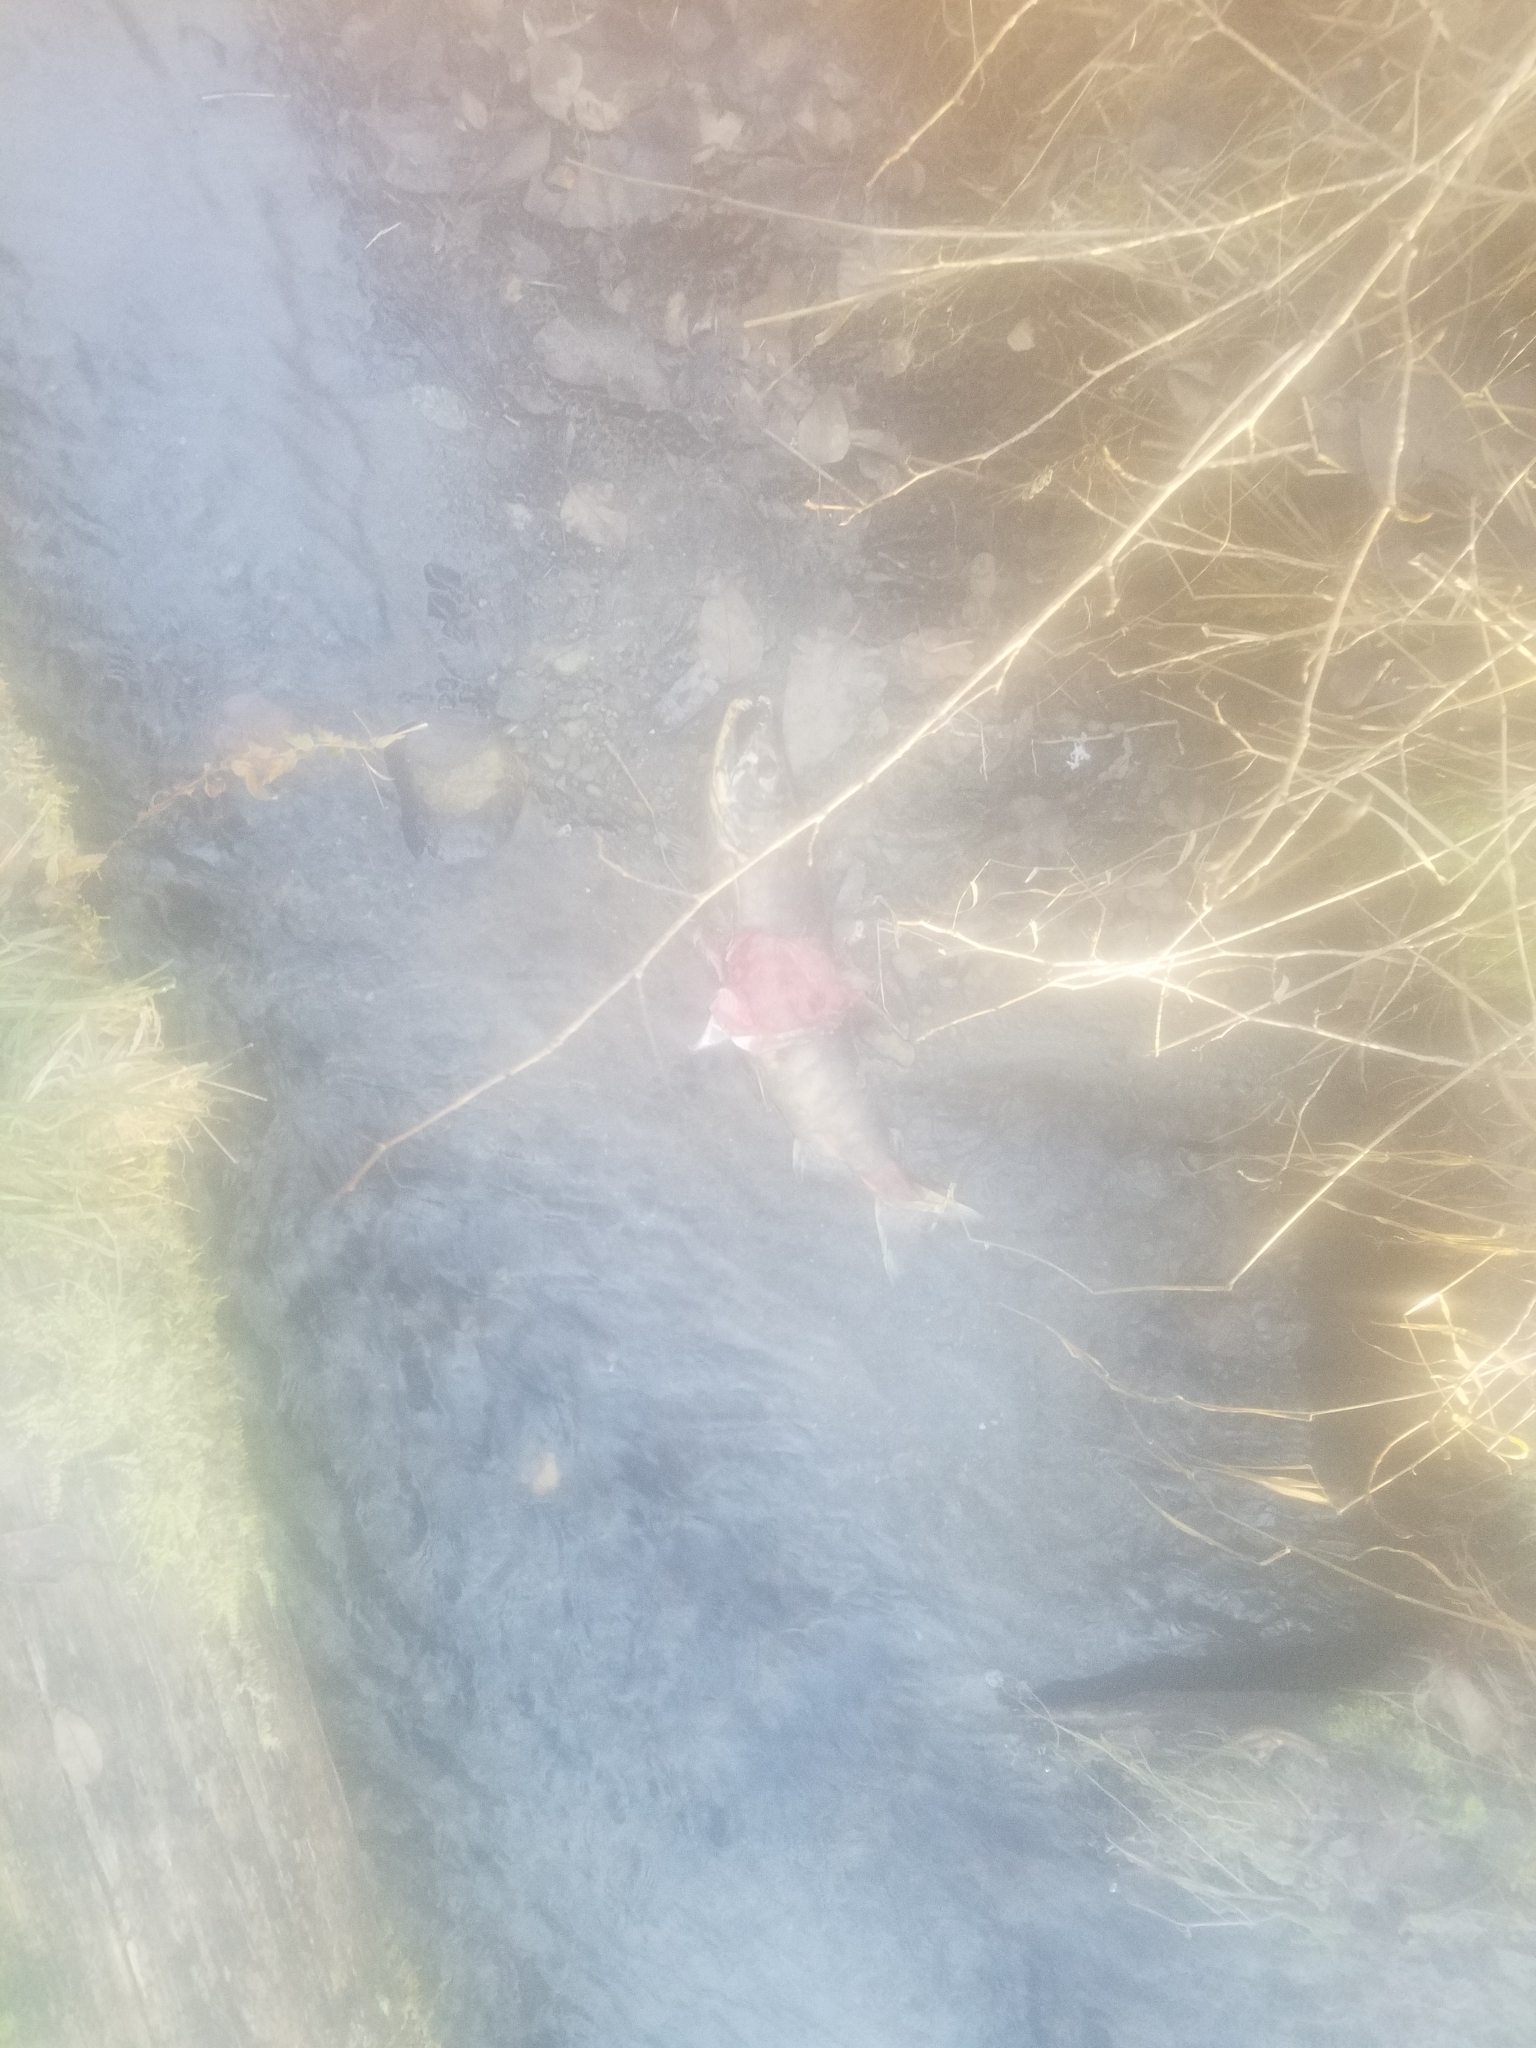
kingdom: Animalia
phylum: Chordata
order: Salmoniformes
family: Salmonidae
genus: Oncorhynchus
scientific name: Oncorhynchus keta
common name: Chum salmon
